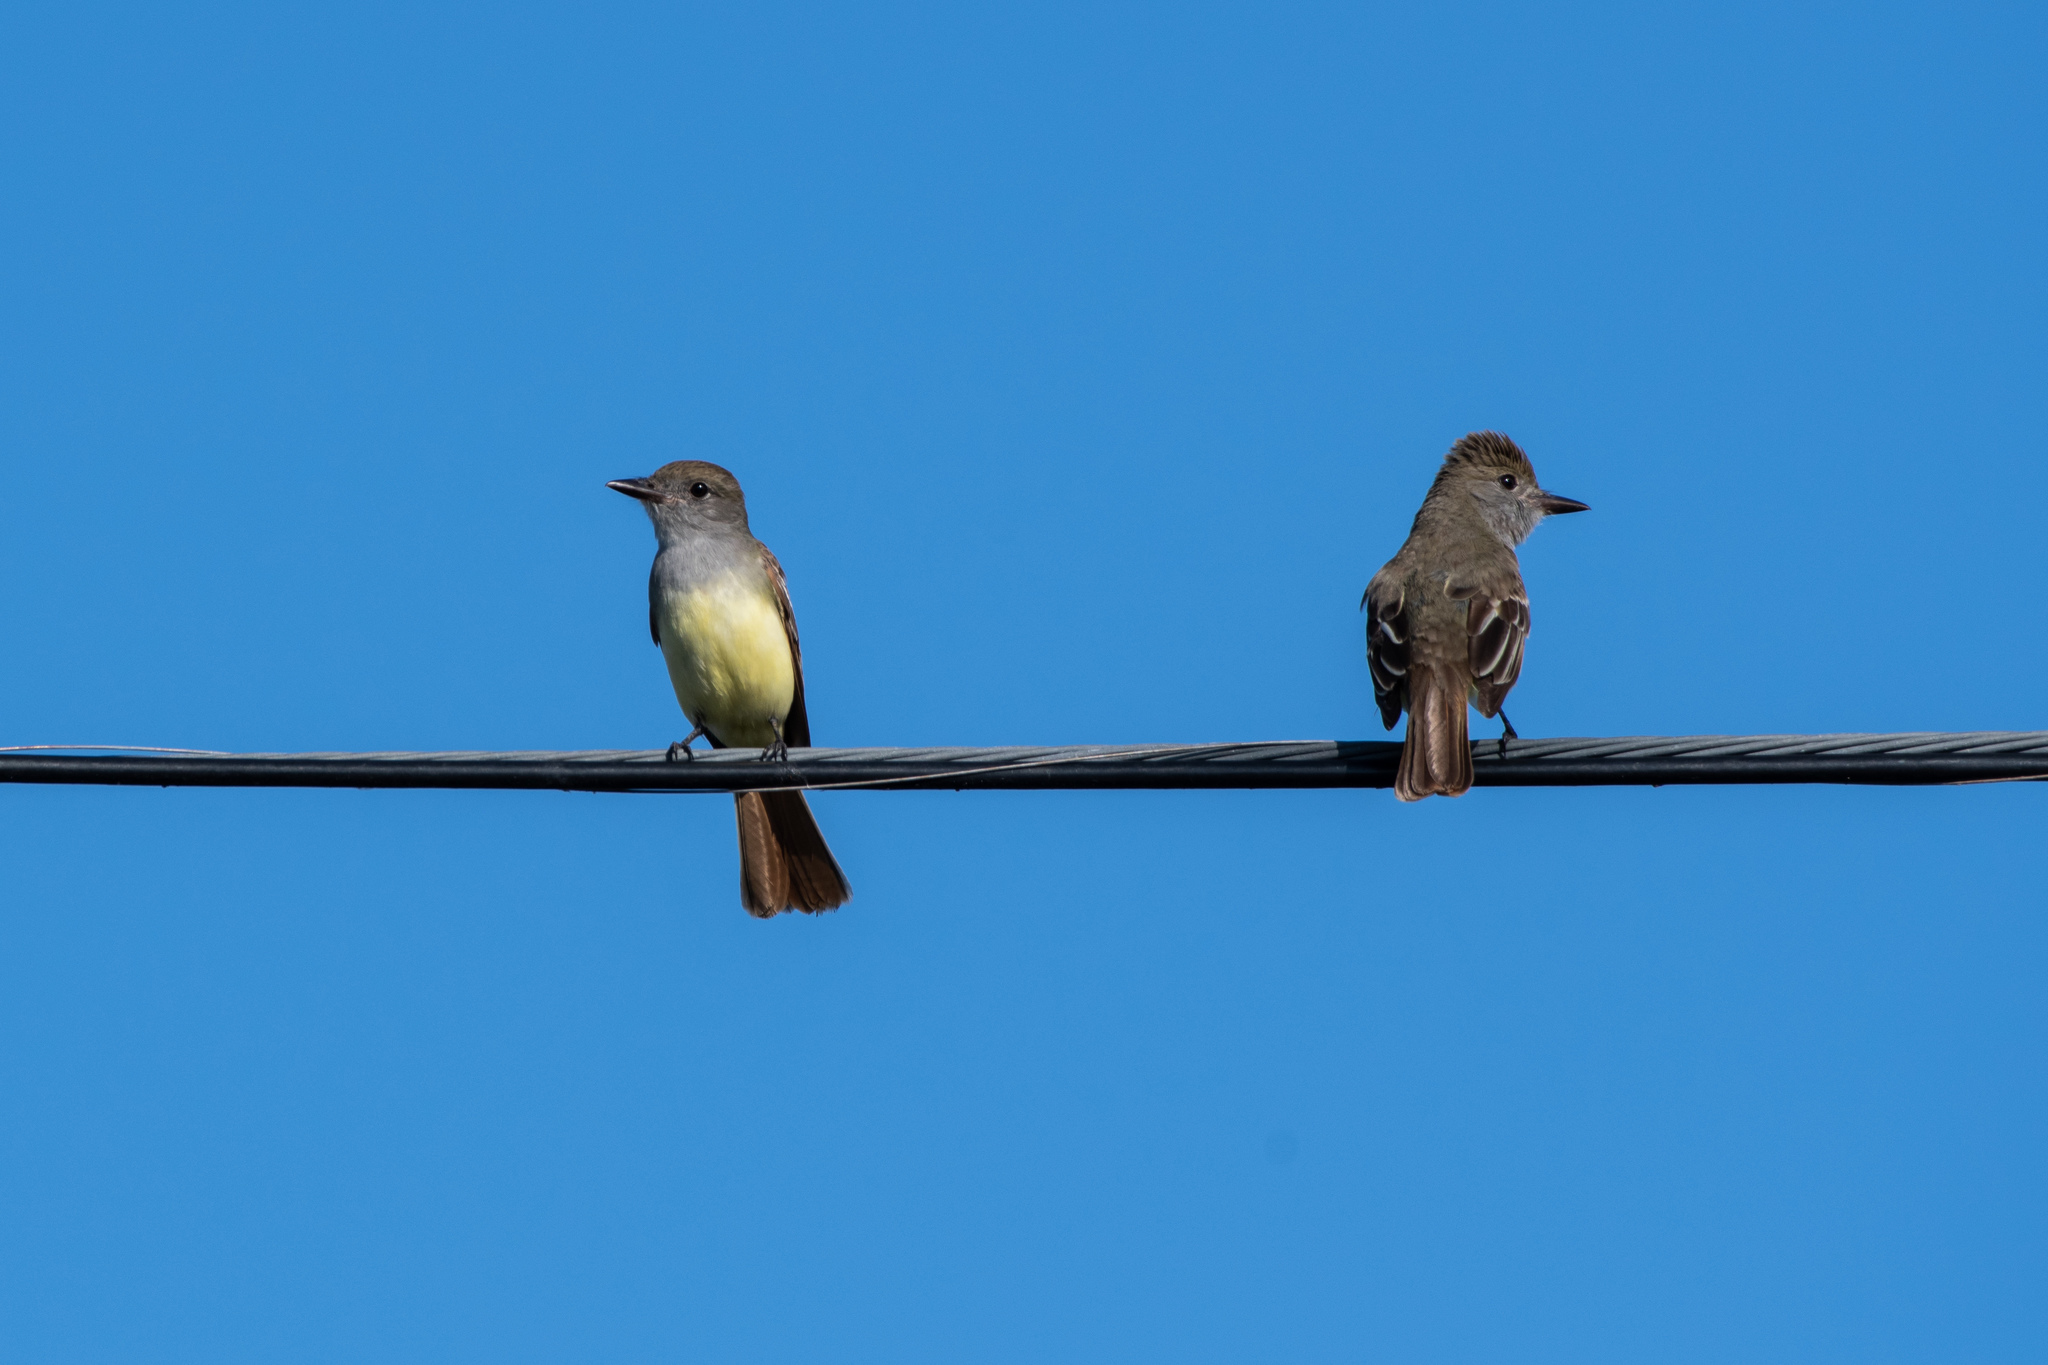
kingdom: Animalia
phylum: Chordata
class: Aves
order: Passeriformes
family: Tyrannidae
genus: Myiarchus
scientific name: Myiarchus crinitus
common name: Great crested flycatcher
